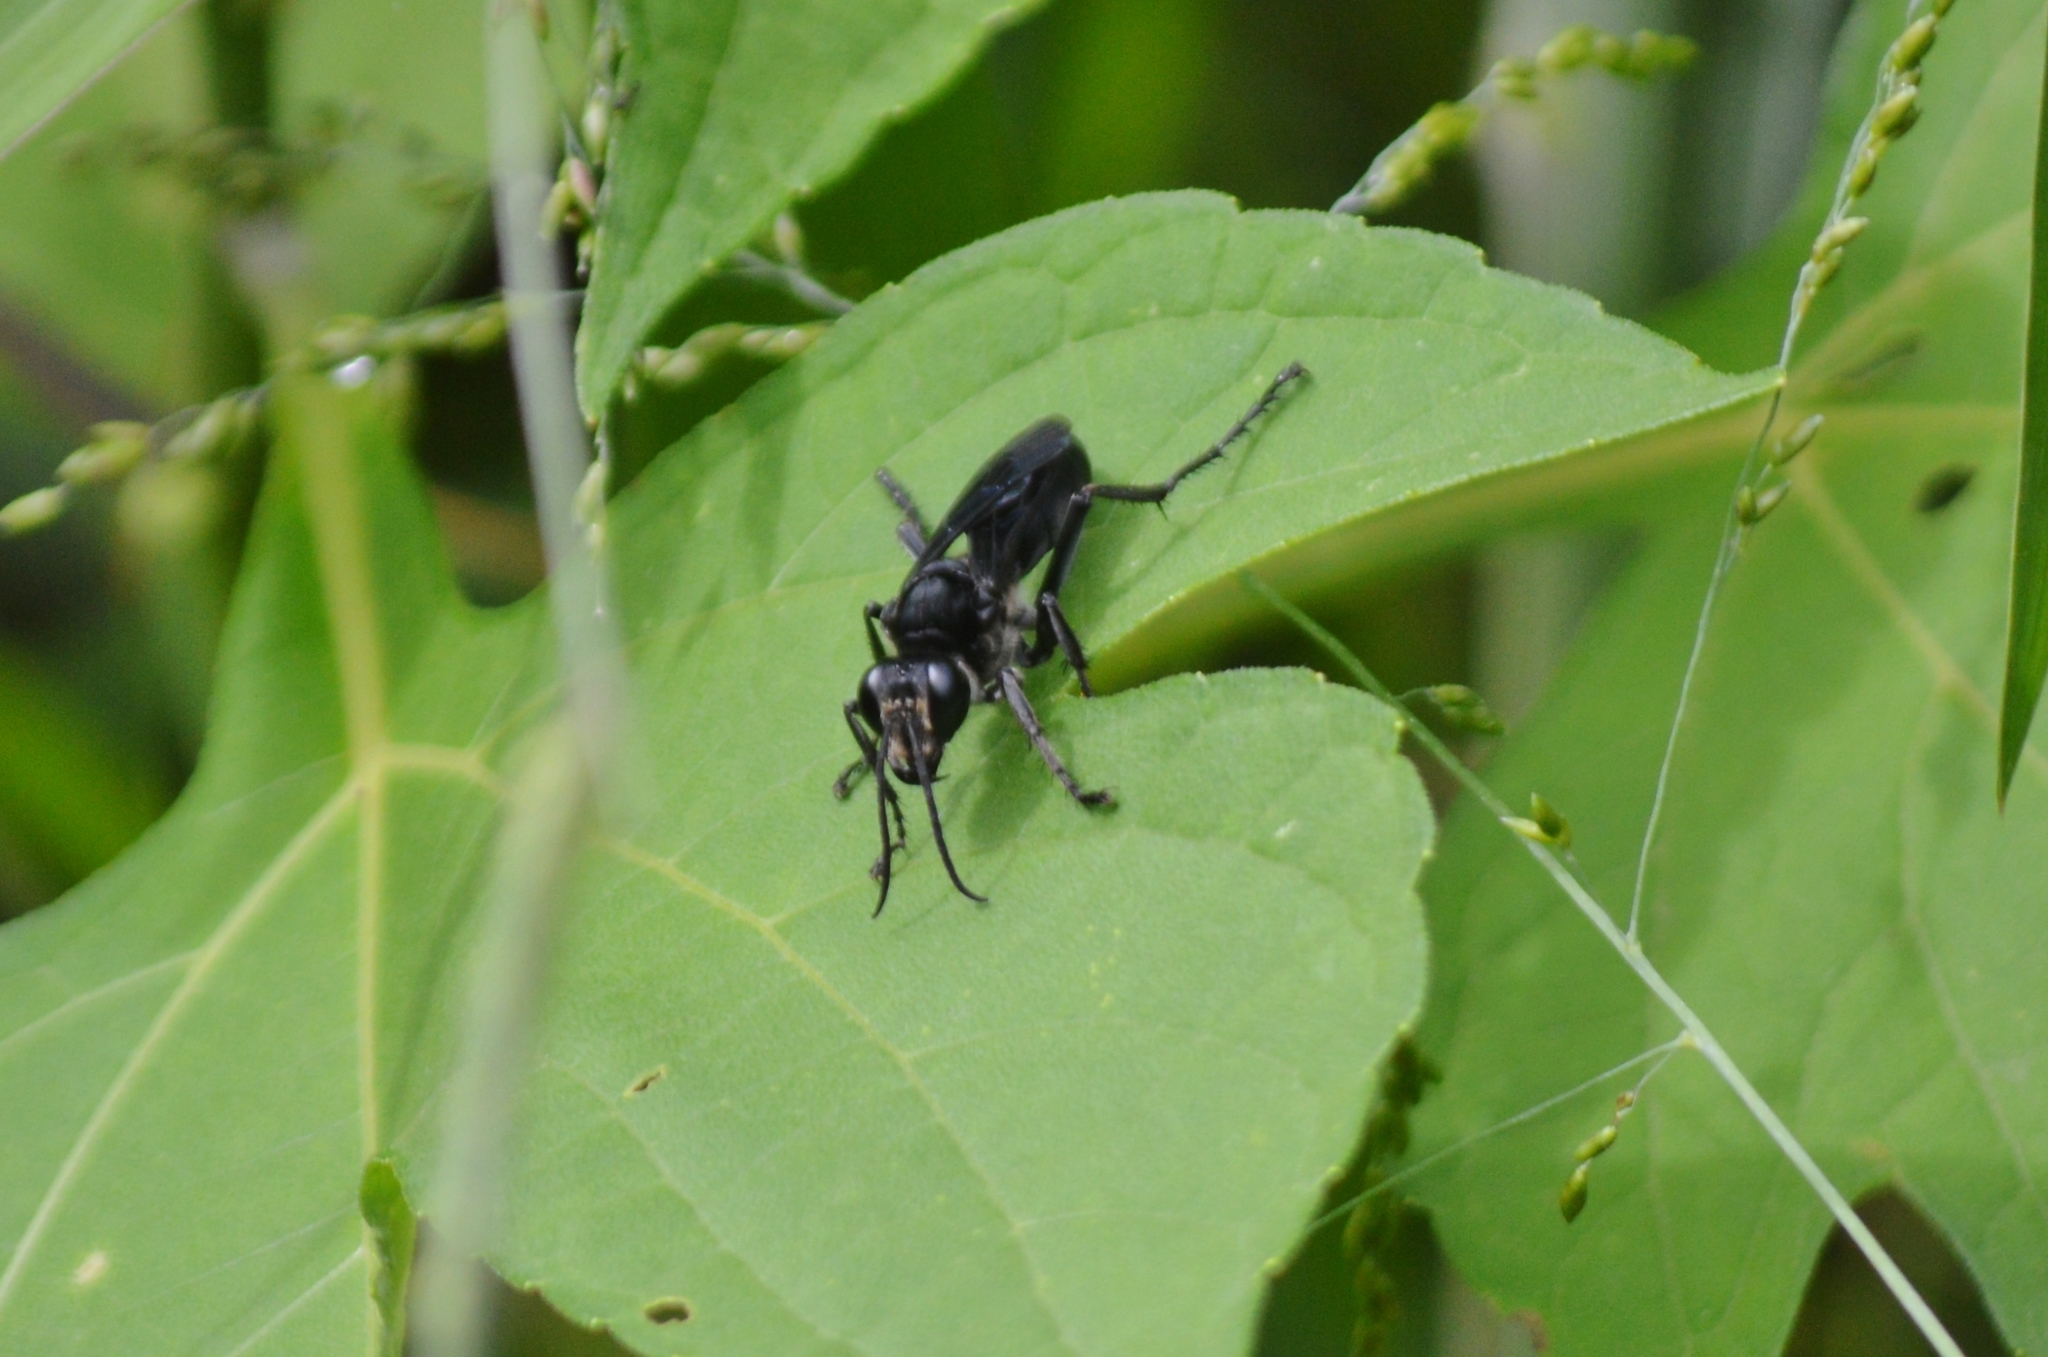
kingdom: Animalia
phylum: Arthropoda
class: Insecta
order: Hymenoptera
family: Sphecidae
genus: Sphex
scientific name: Sphex latro
